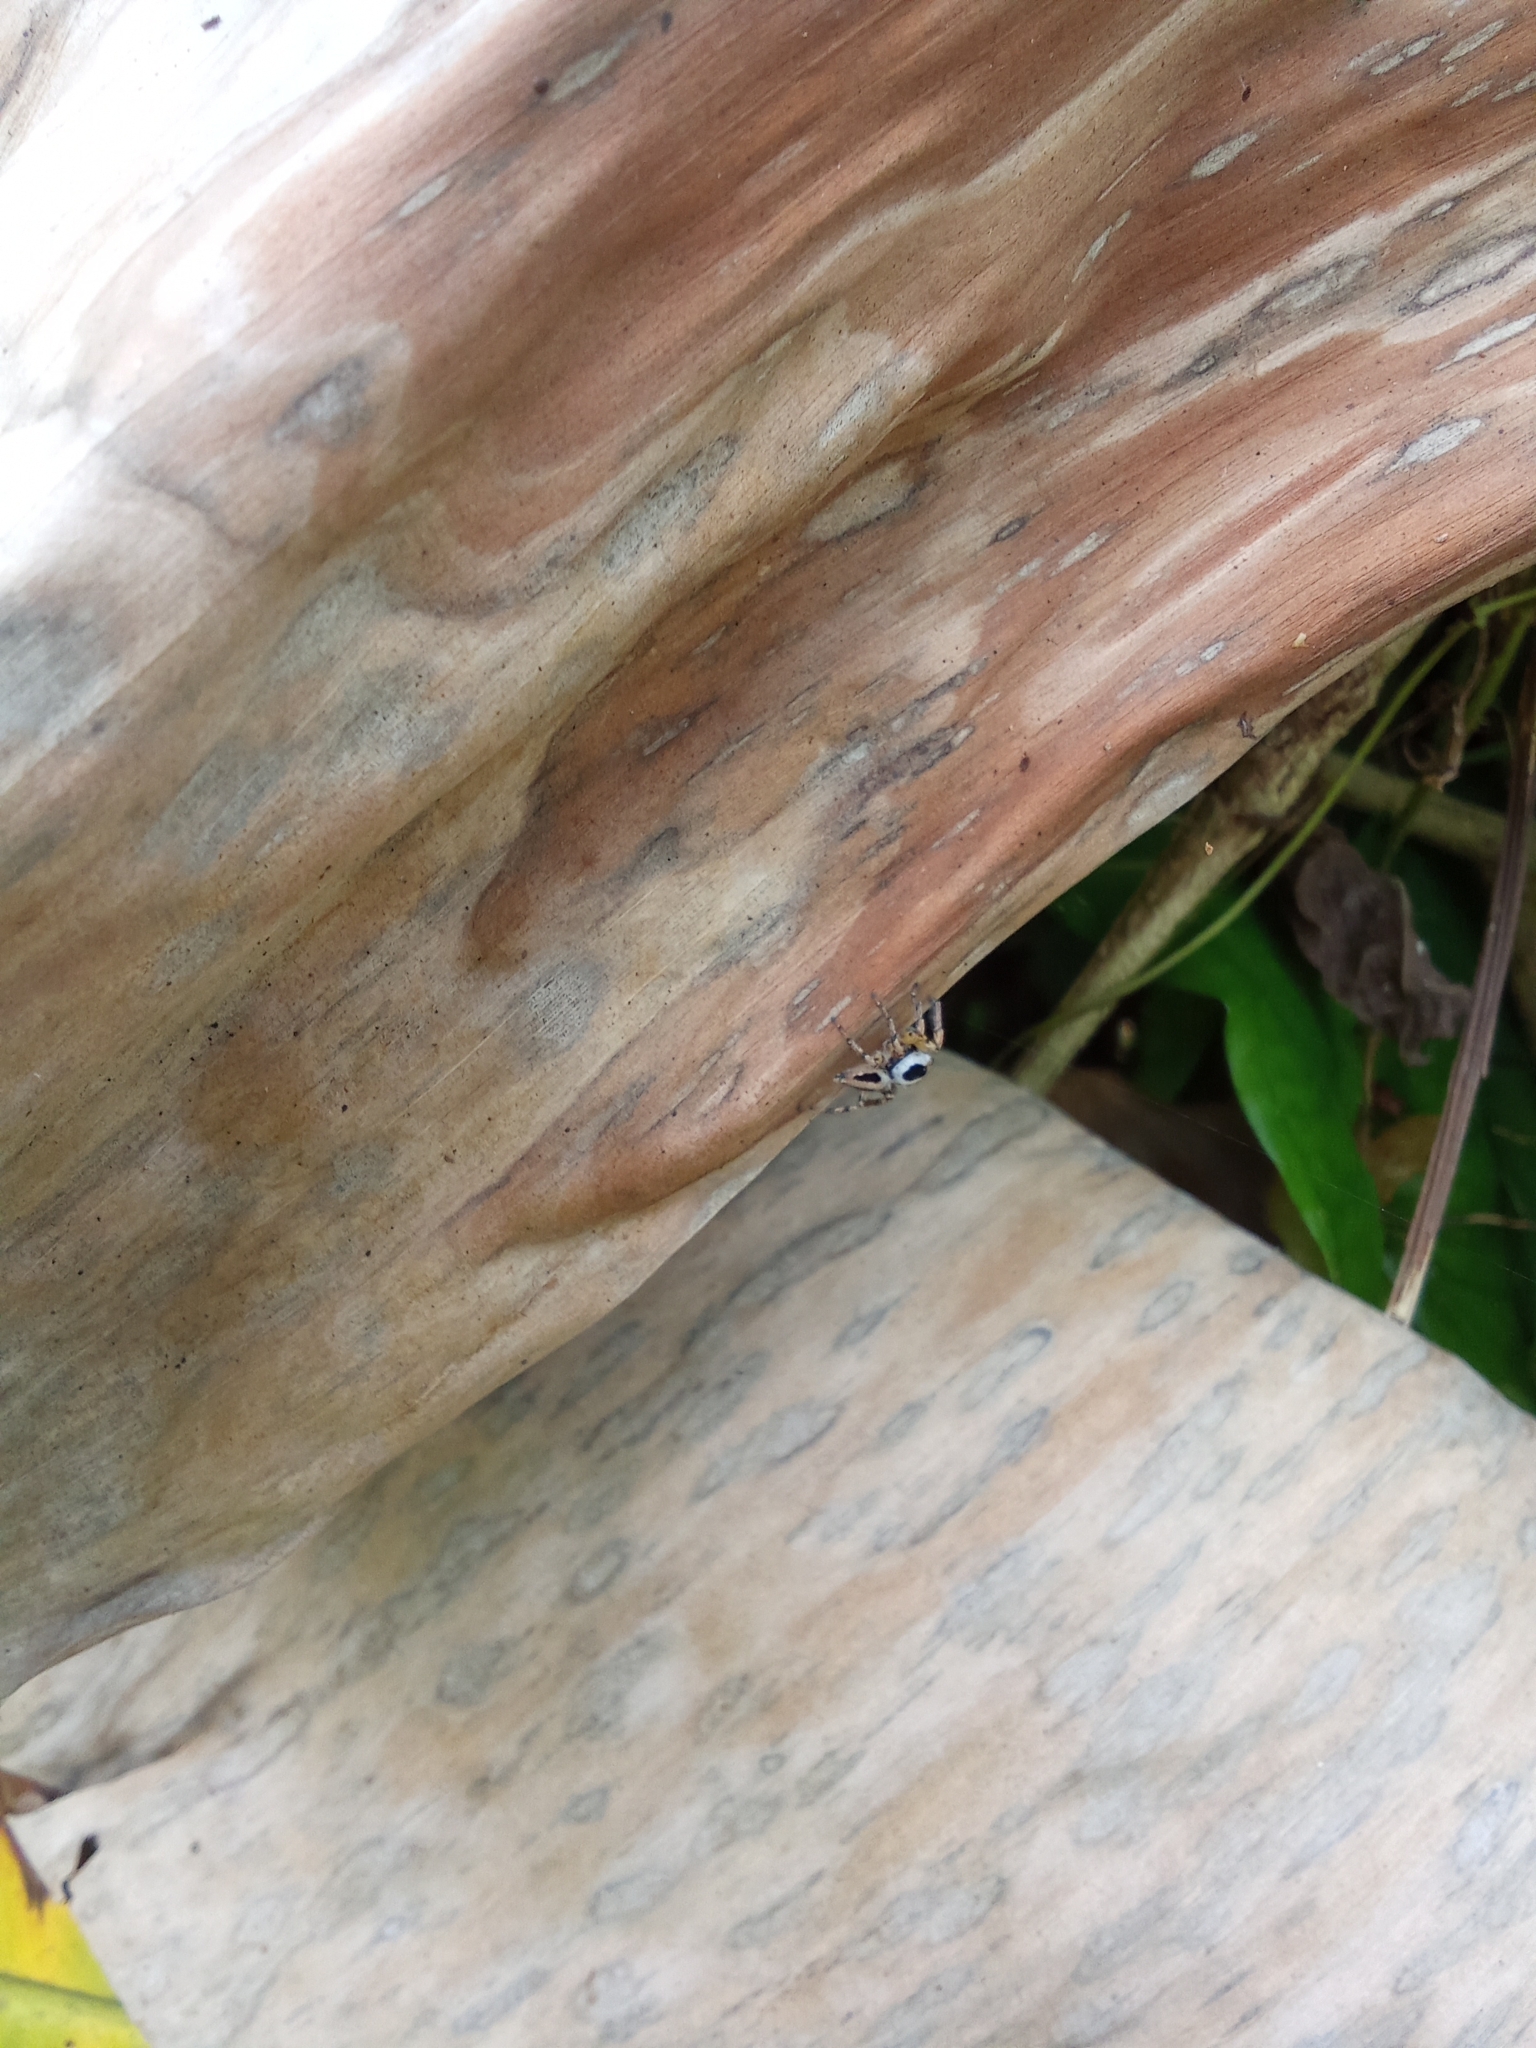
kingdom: Animalia
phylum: Arthropoda
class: Arachnida
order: Araneae
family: Salticidae
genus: Tarkas
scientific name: Tarkas maculatipes
